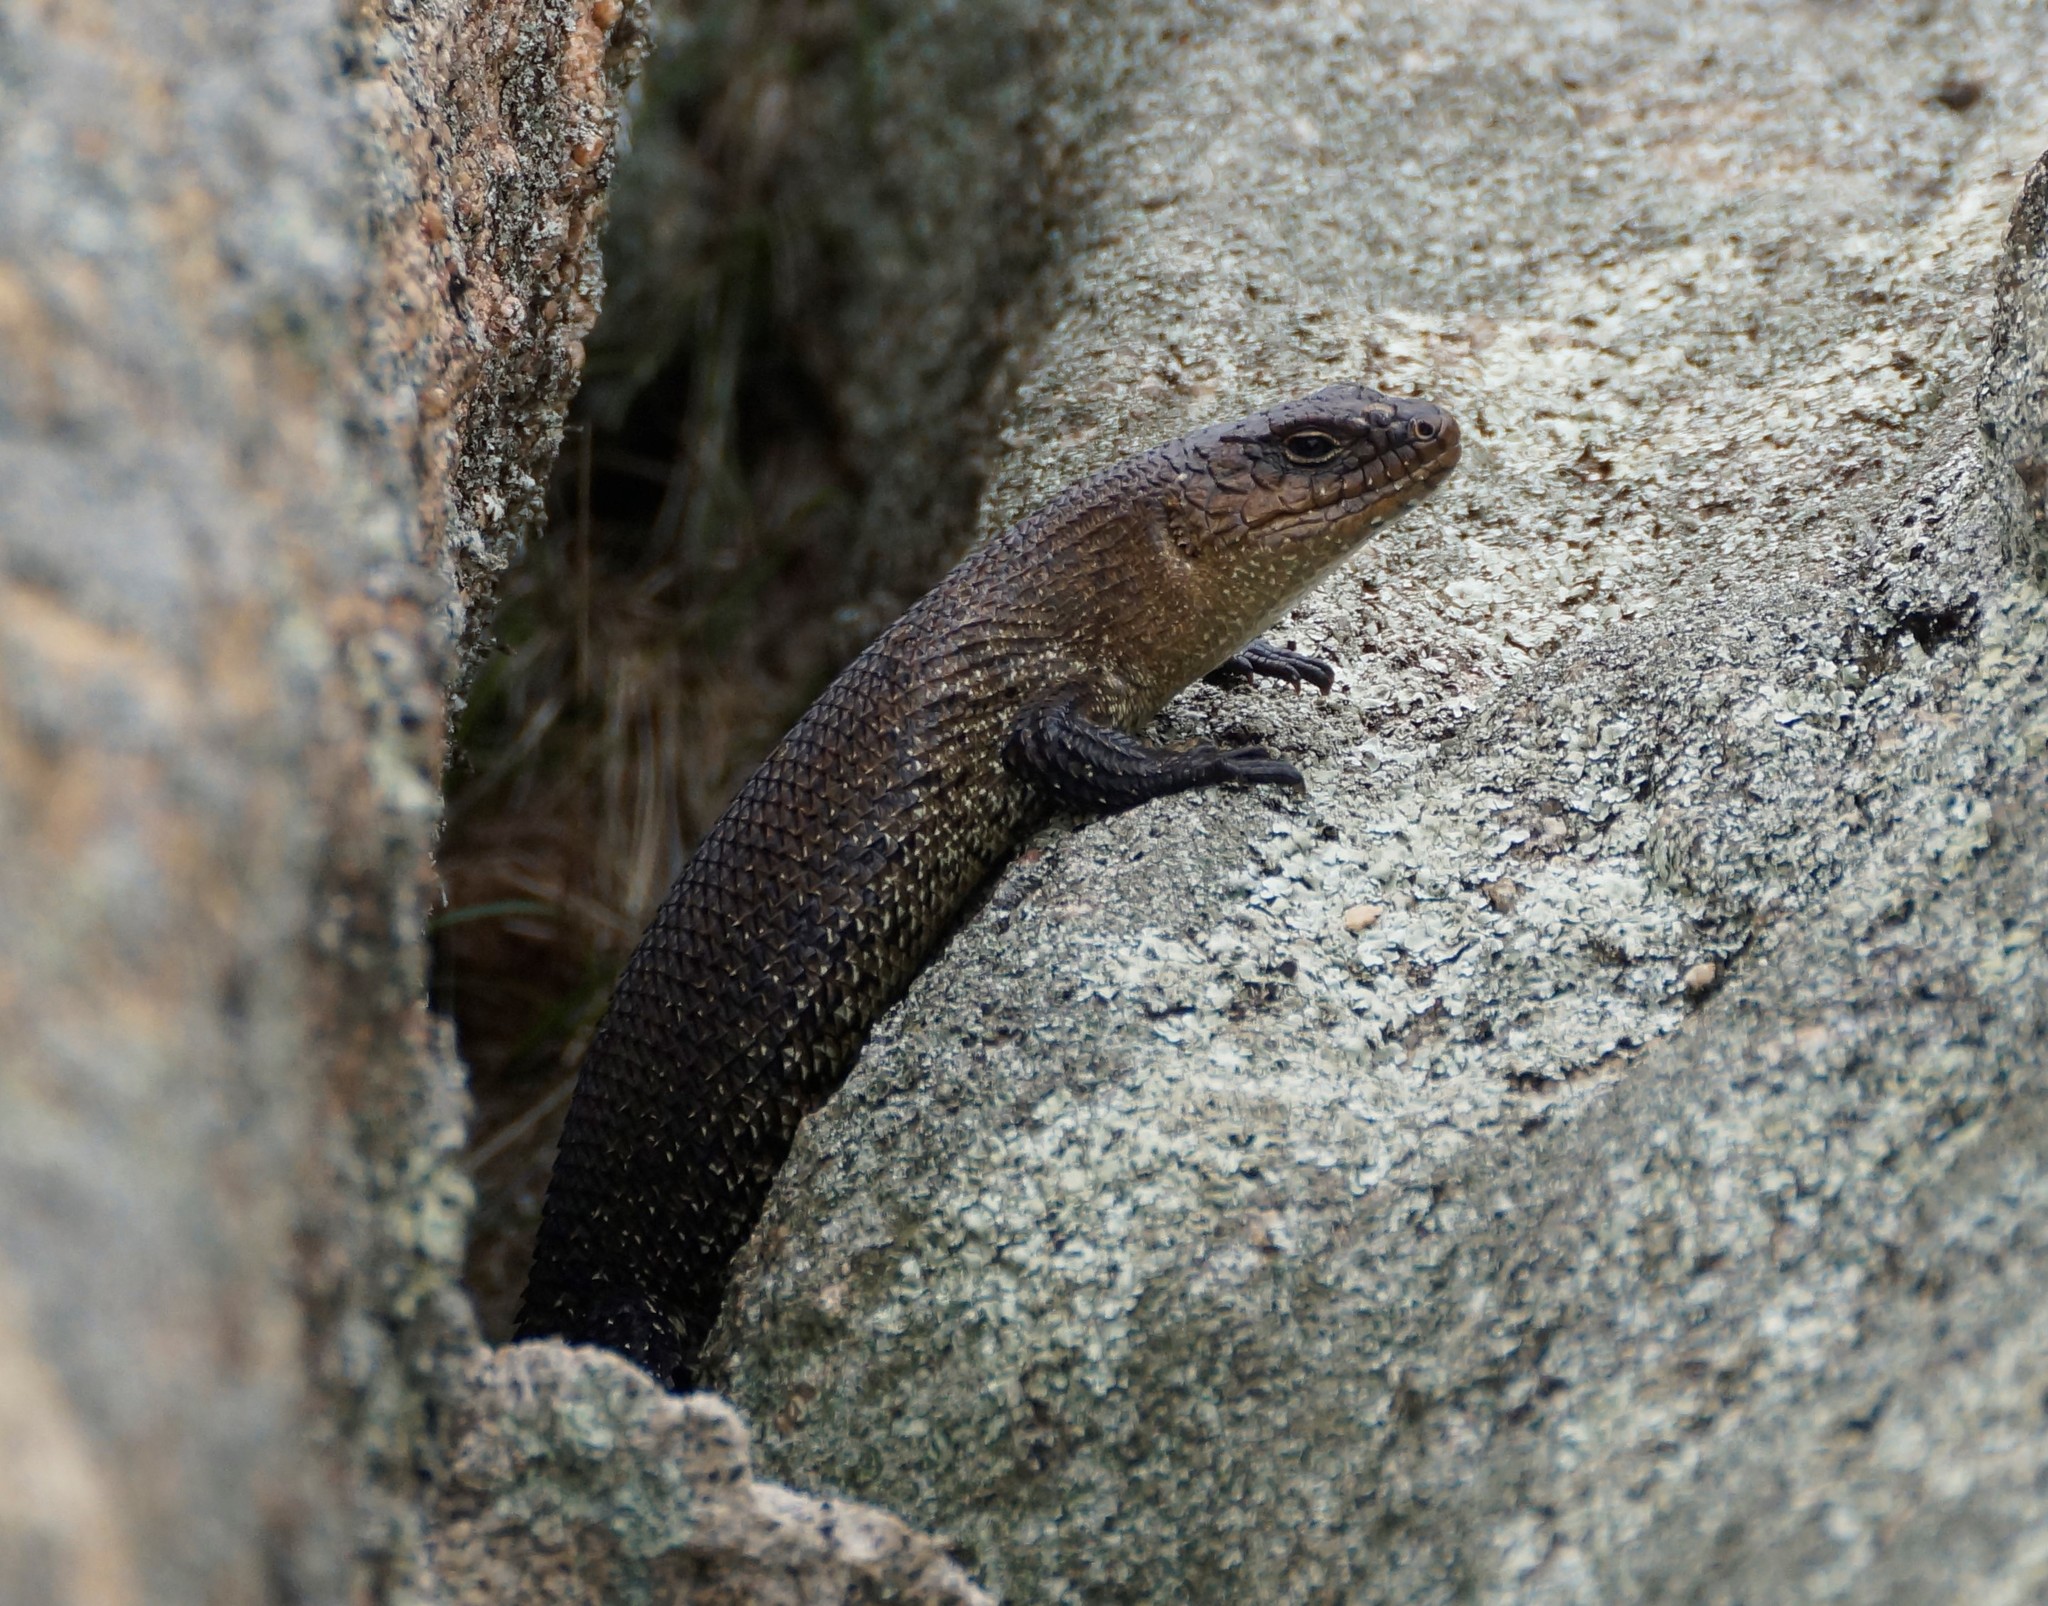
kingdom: Animalia
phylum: Chordata
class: Squamata
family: Scincidae
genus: Egernia
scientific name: Egernia cunninghami
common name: Cunningham's skink
